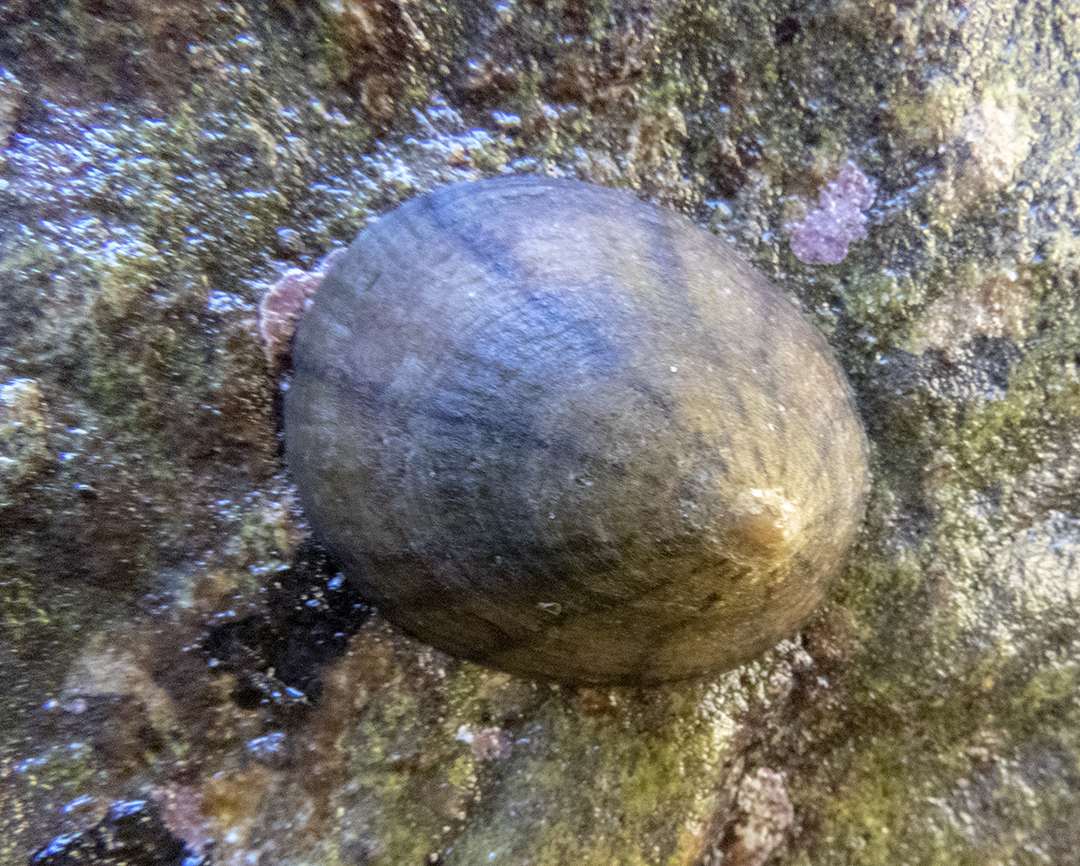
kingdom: Animalia
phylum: Mollusca
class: Gastropoda
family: Nacellidae
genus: Cellana
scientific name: Cellana radians
